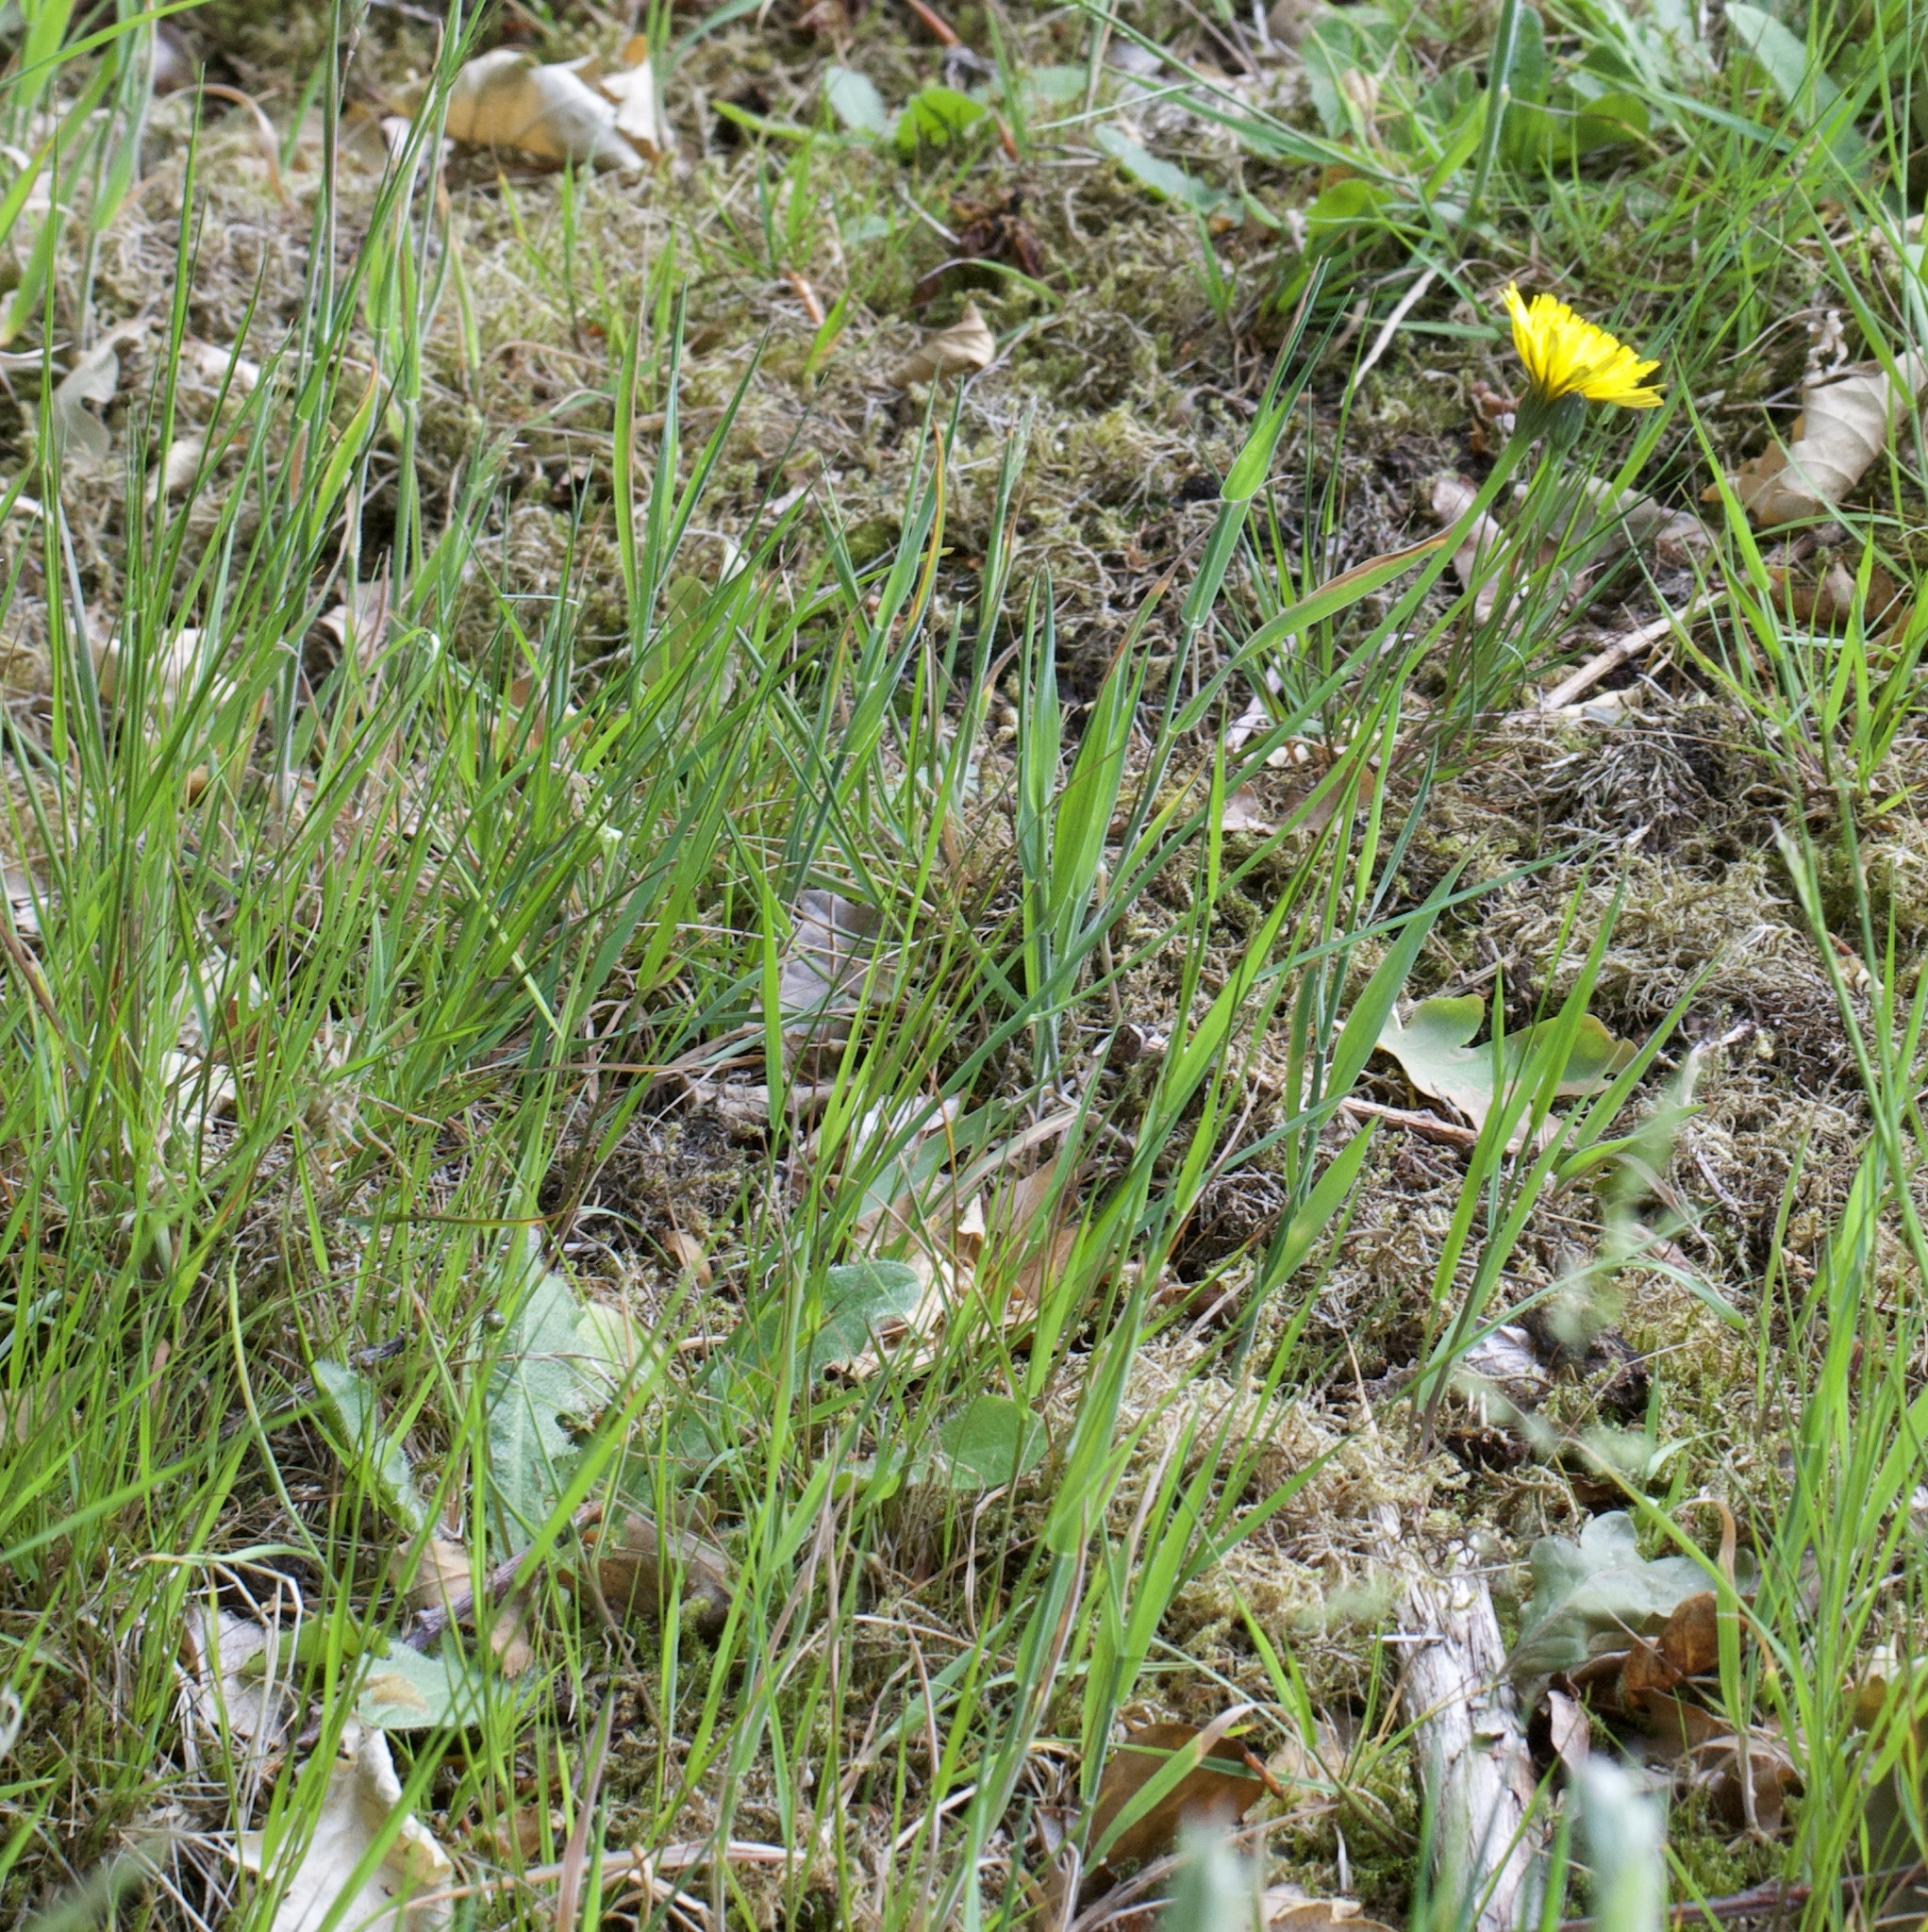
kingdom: Plantae
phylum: Tracheophyta
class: Magnoliopsida
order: Asterales
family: Asteraceae
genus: Hypochaeris
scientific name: Hypochaeris radicata
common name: Flatweed
